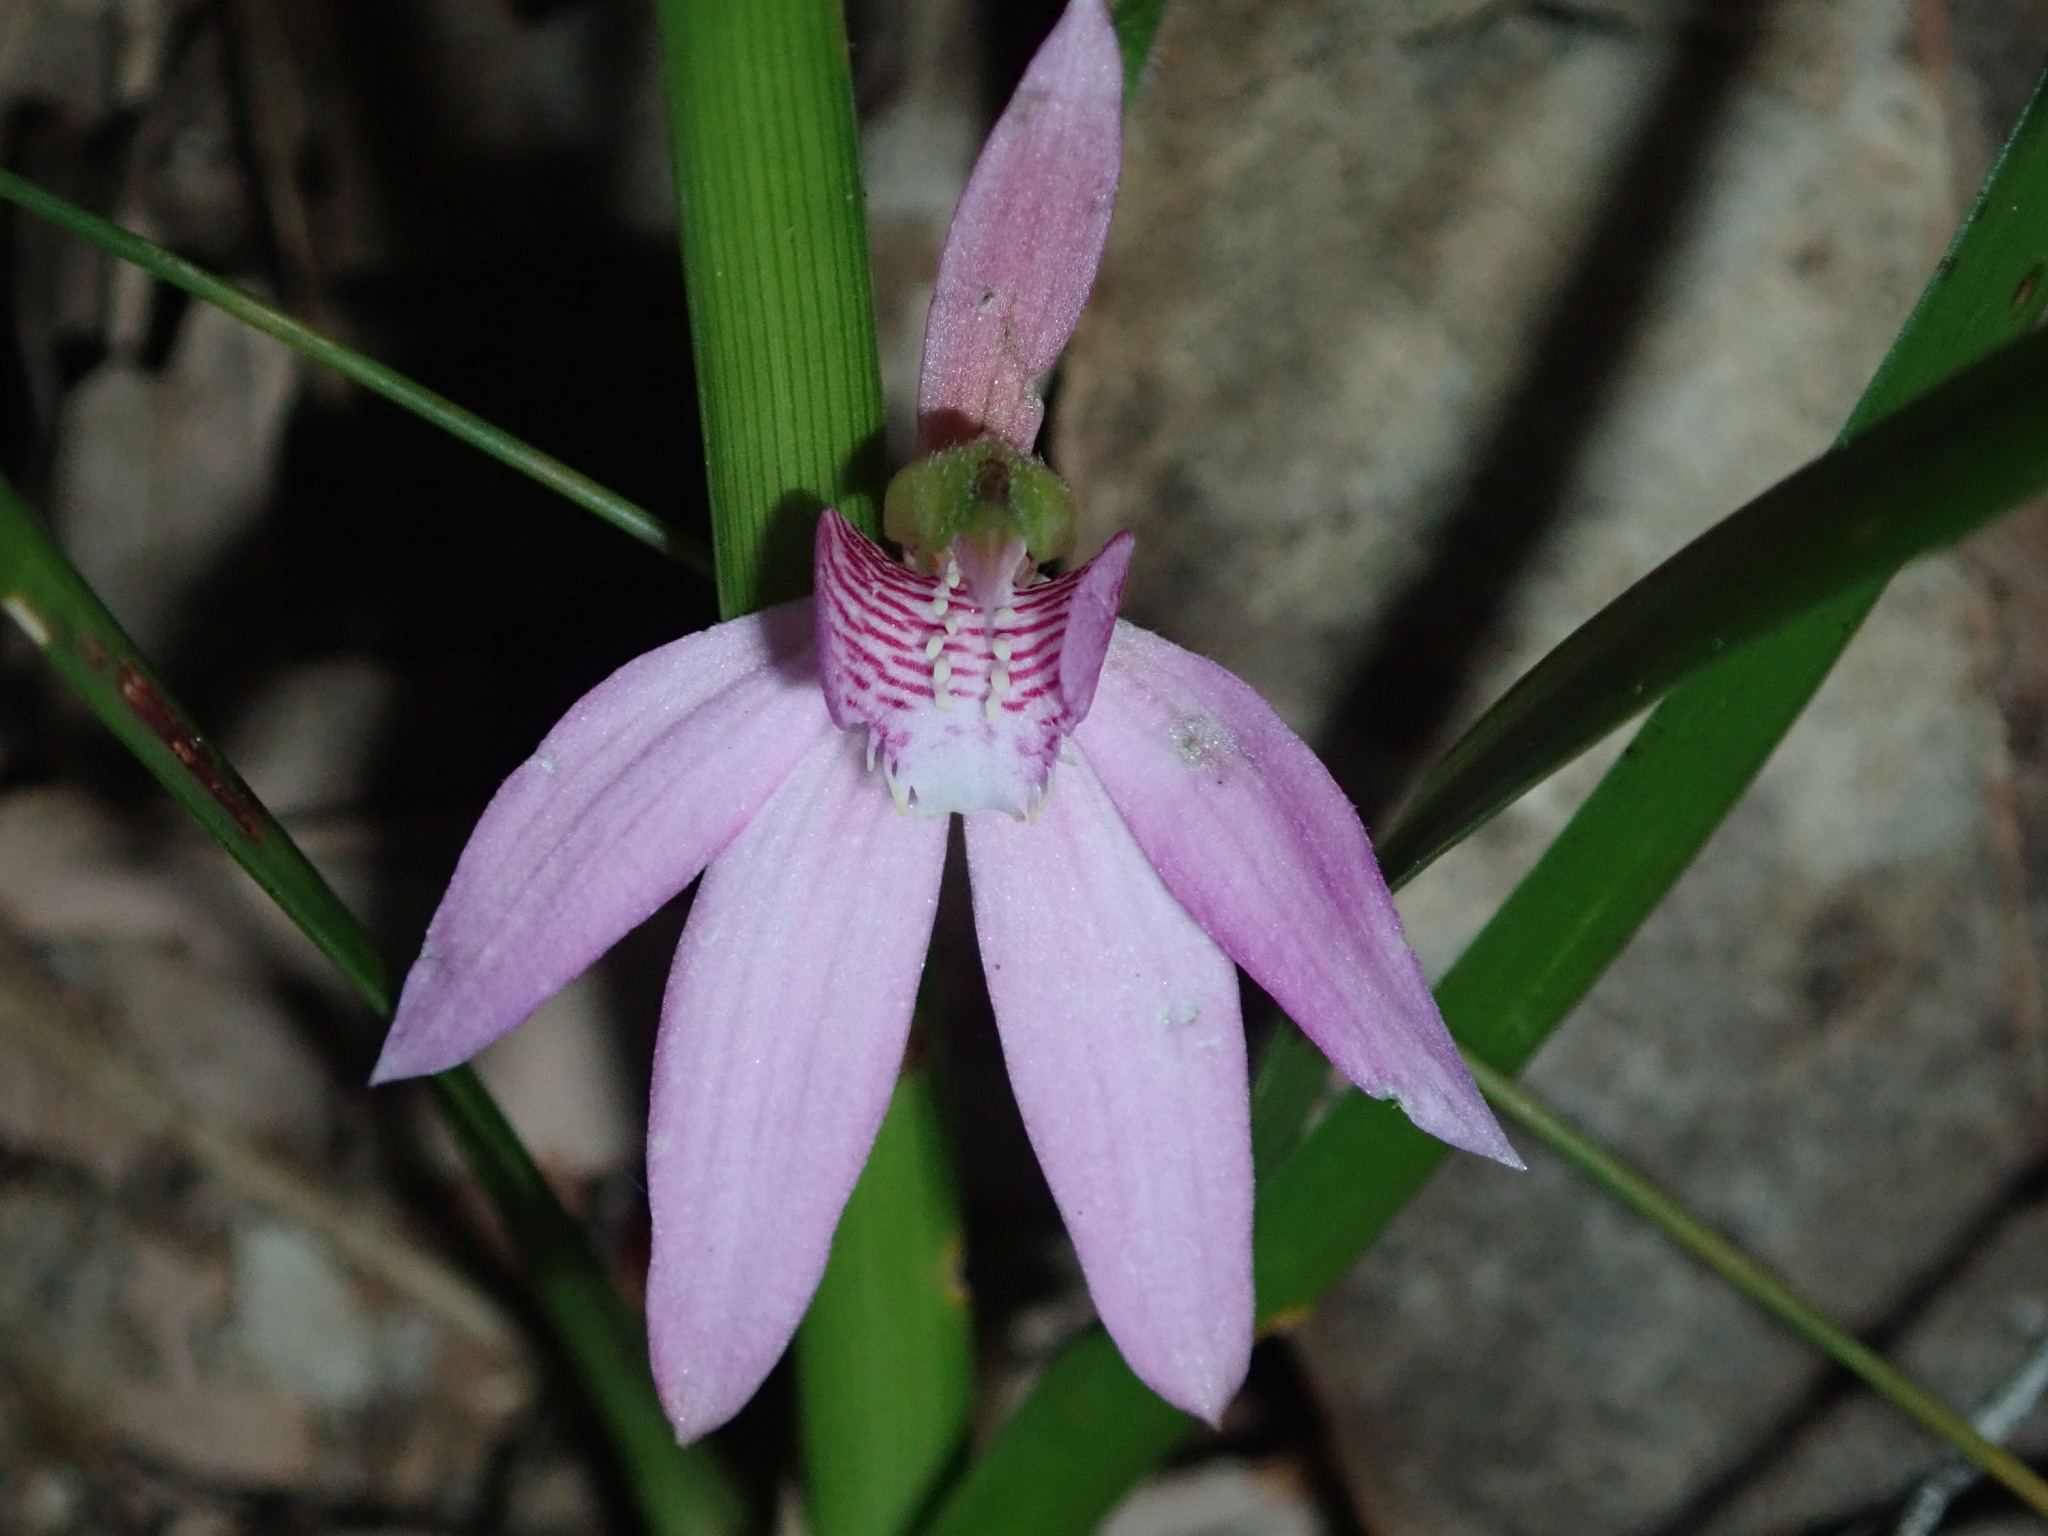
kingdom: Plantae
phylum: Tracheophyta
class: Liliopsida
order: Asparagales
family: Orchidaceae
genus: Caladenia
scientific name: Caladenia quadrifaria
